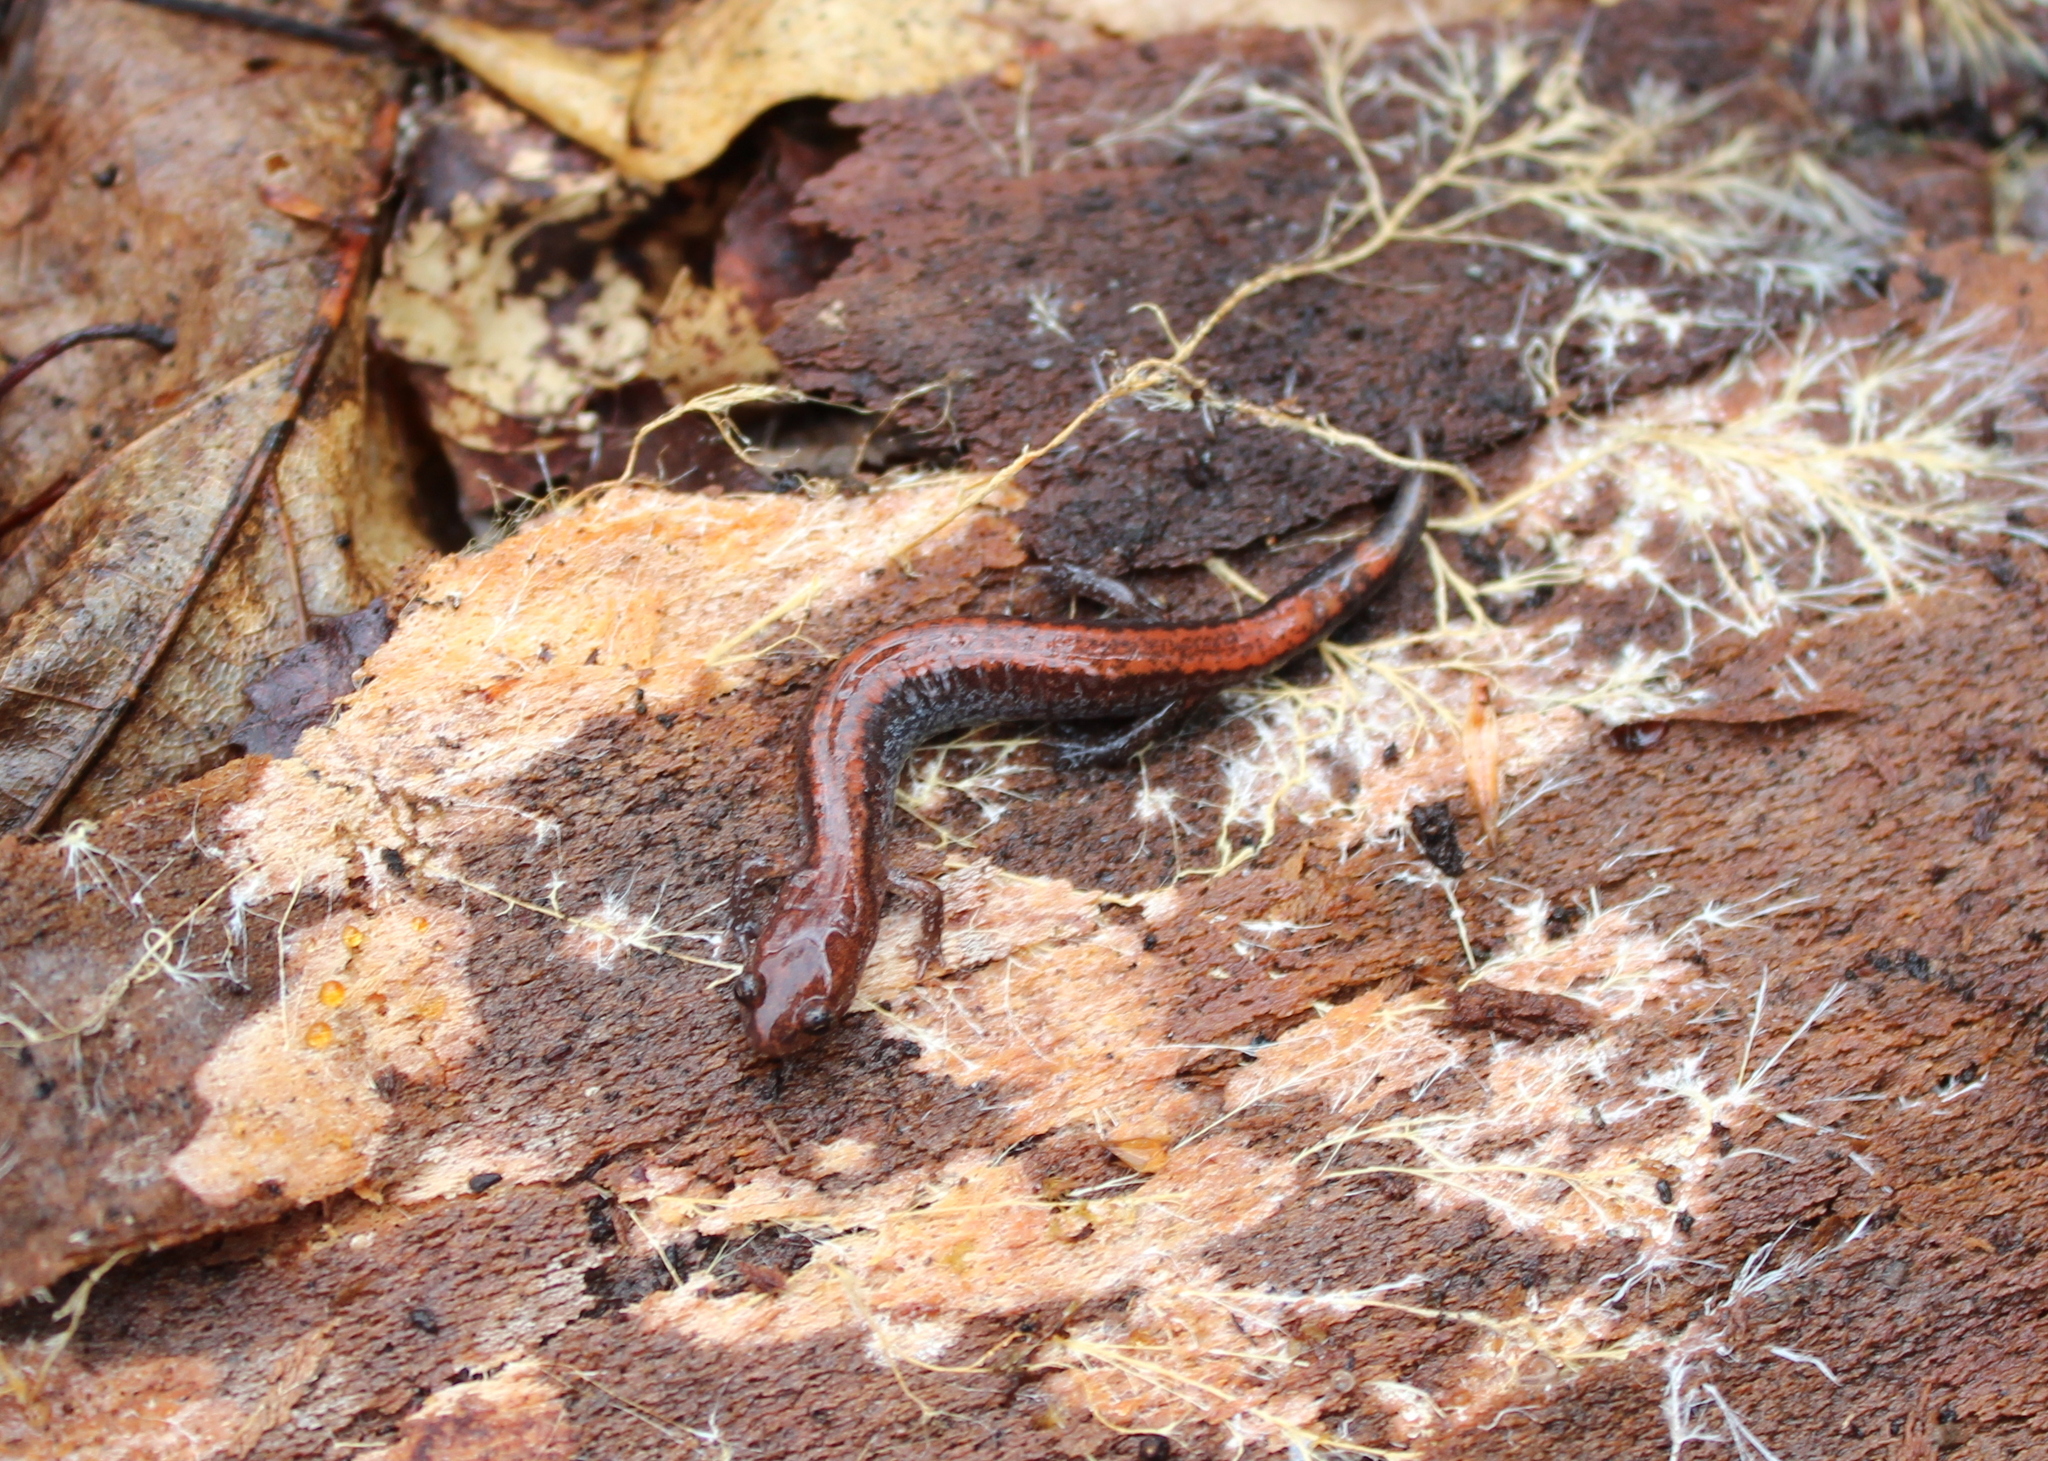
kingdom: Animalia
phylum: Chordata
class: Amphibia
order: Caudata
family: Plethodontidae
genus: Plethodon
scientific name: Plethodon cinereus
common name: Redback salamander
